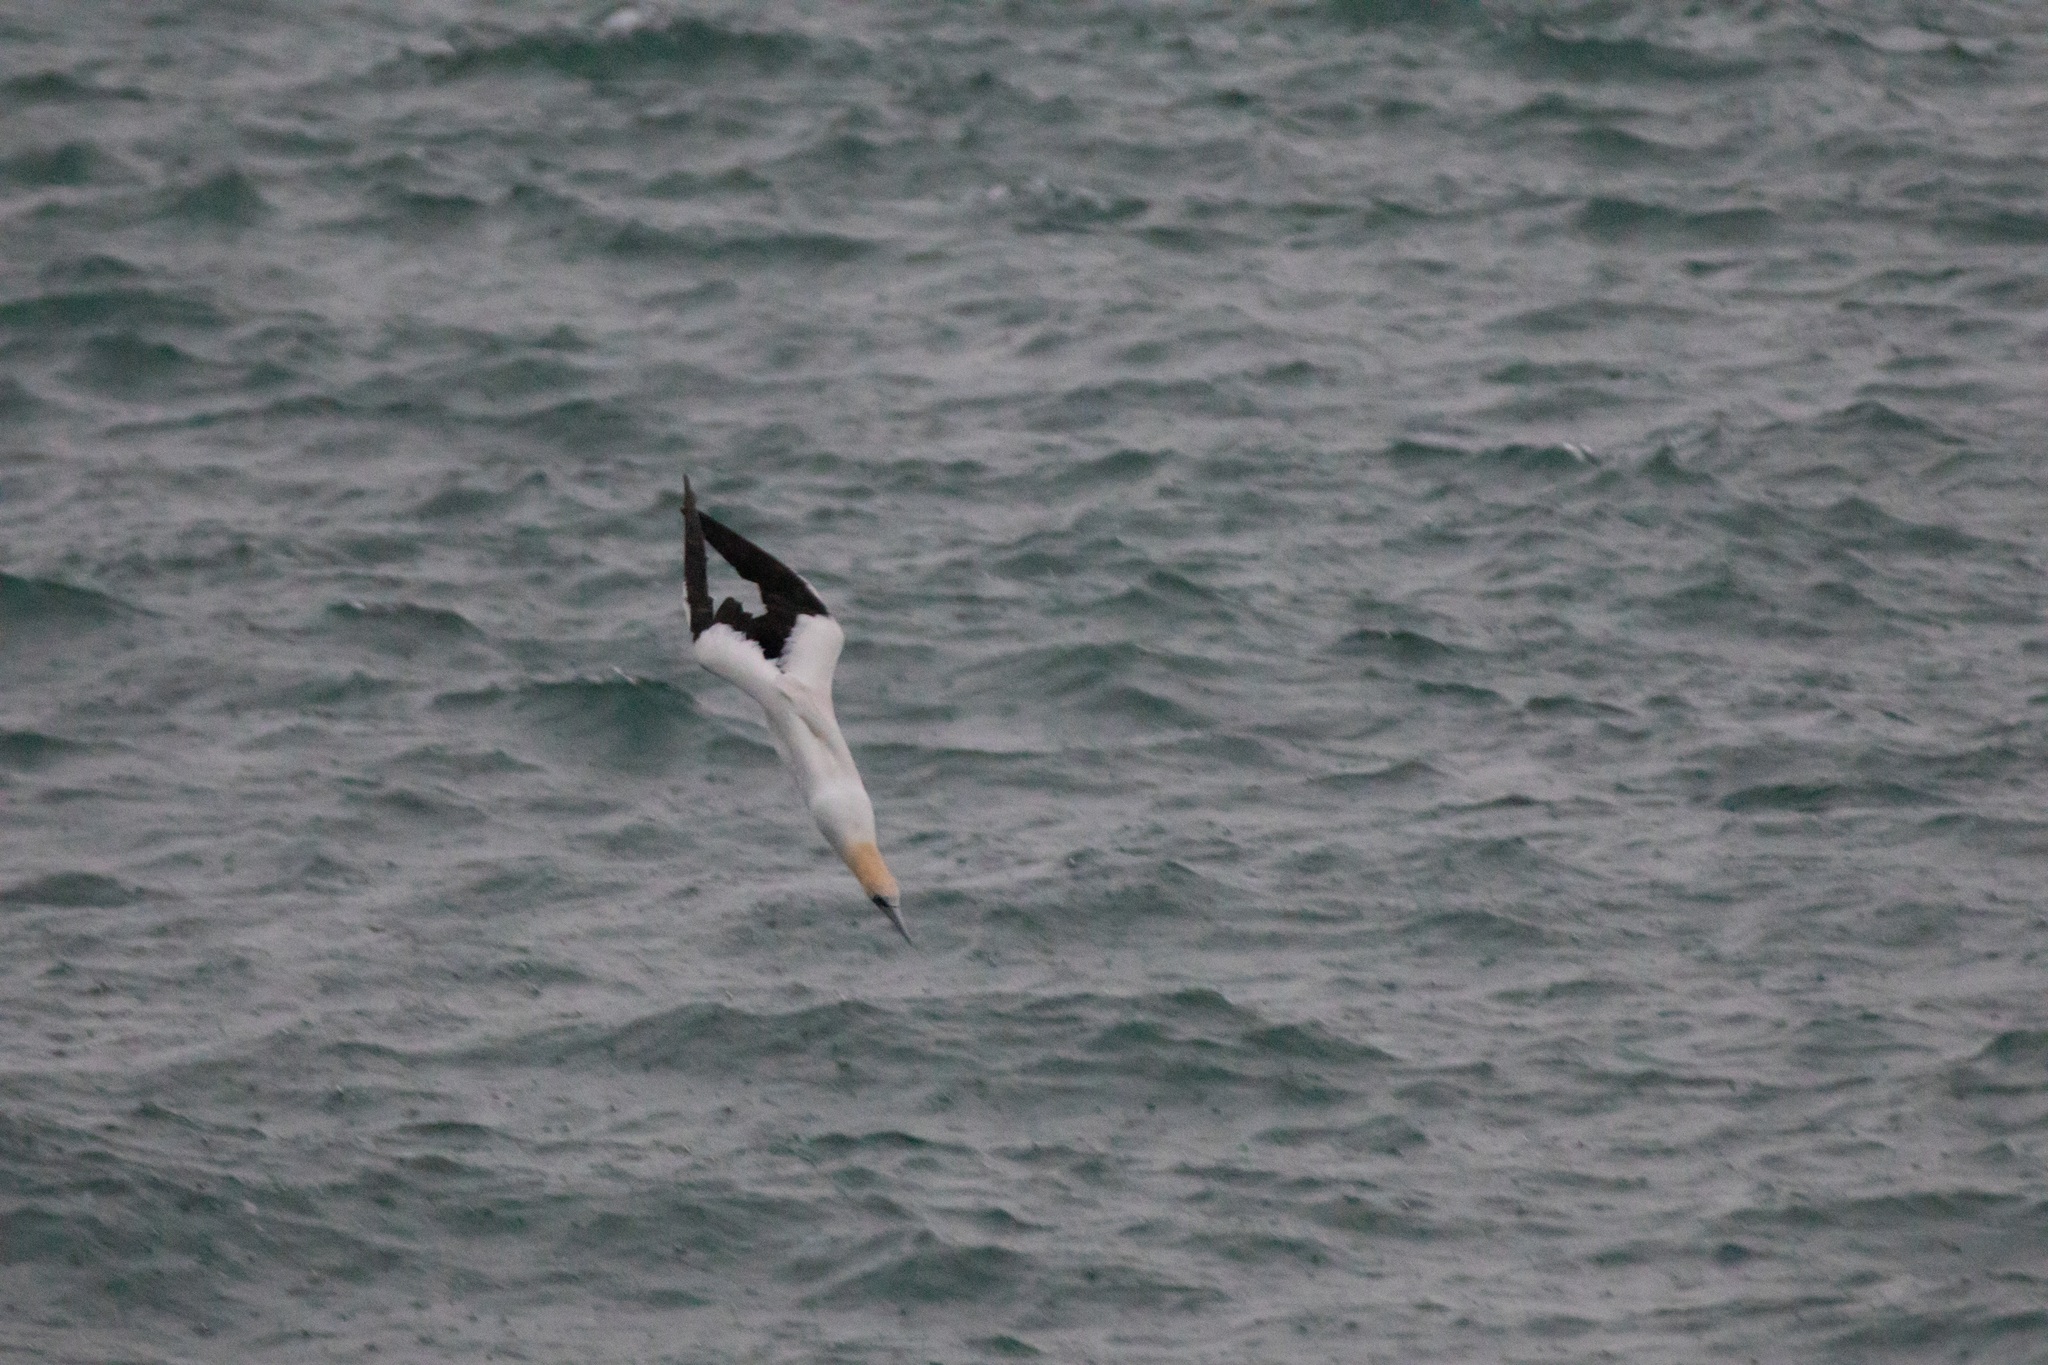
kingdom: Animalia
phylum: Chordata
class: Aves
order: Suliformes
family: Sulidae
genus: Morus
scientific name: Morus serrator
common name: Australasian gannet
